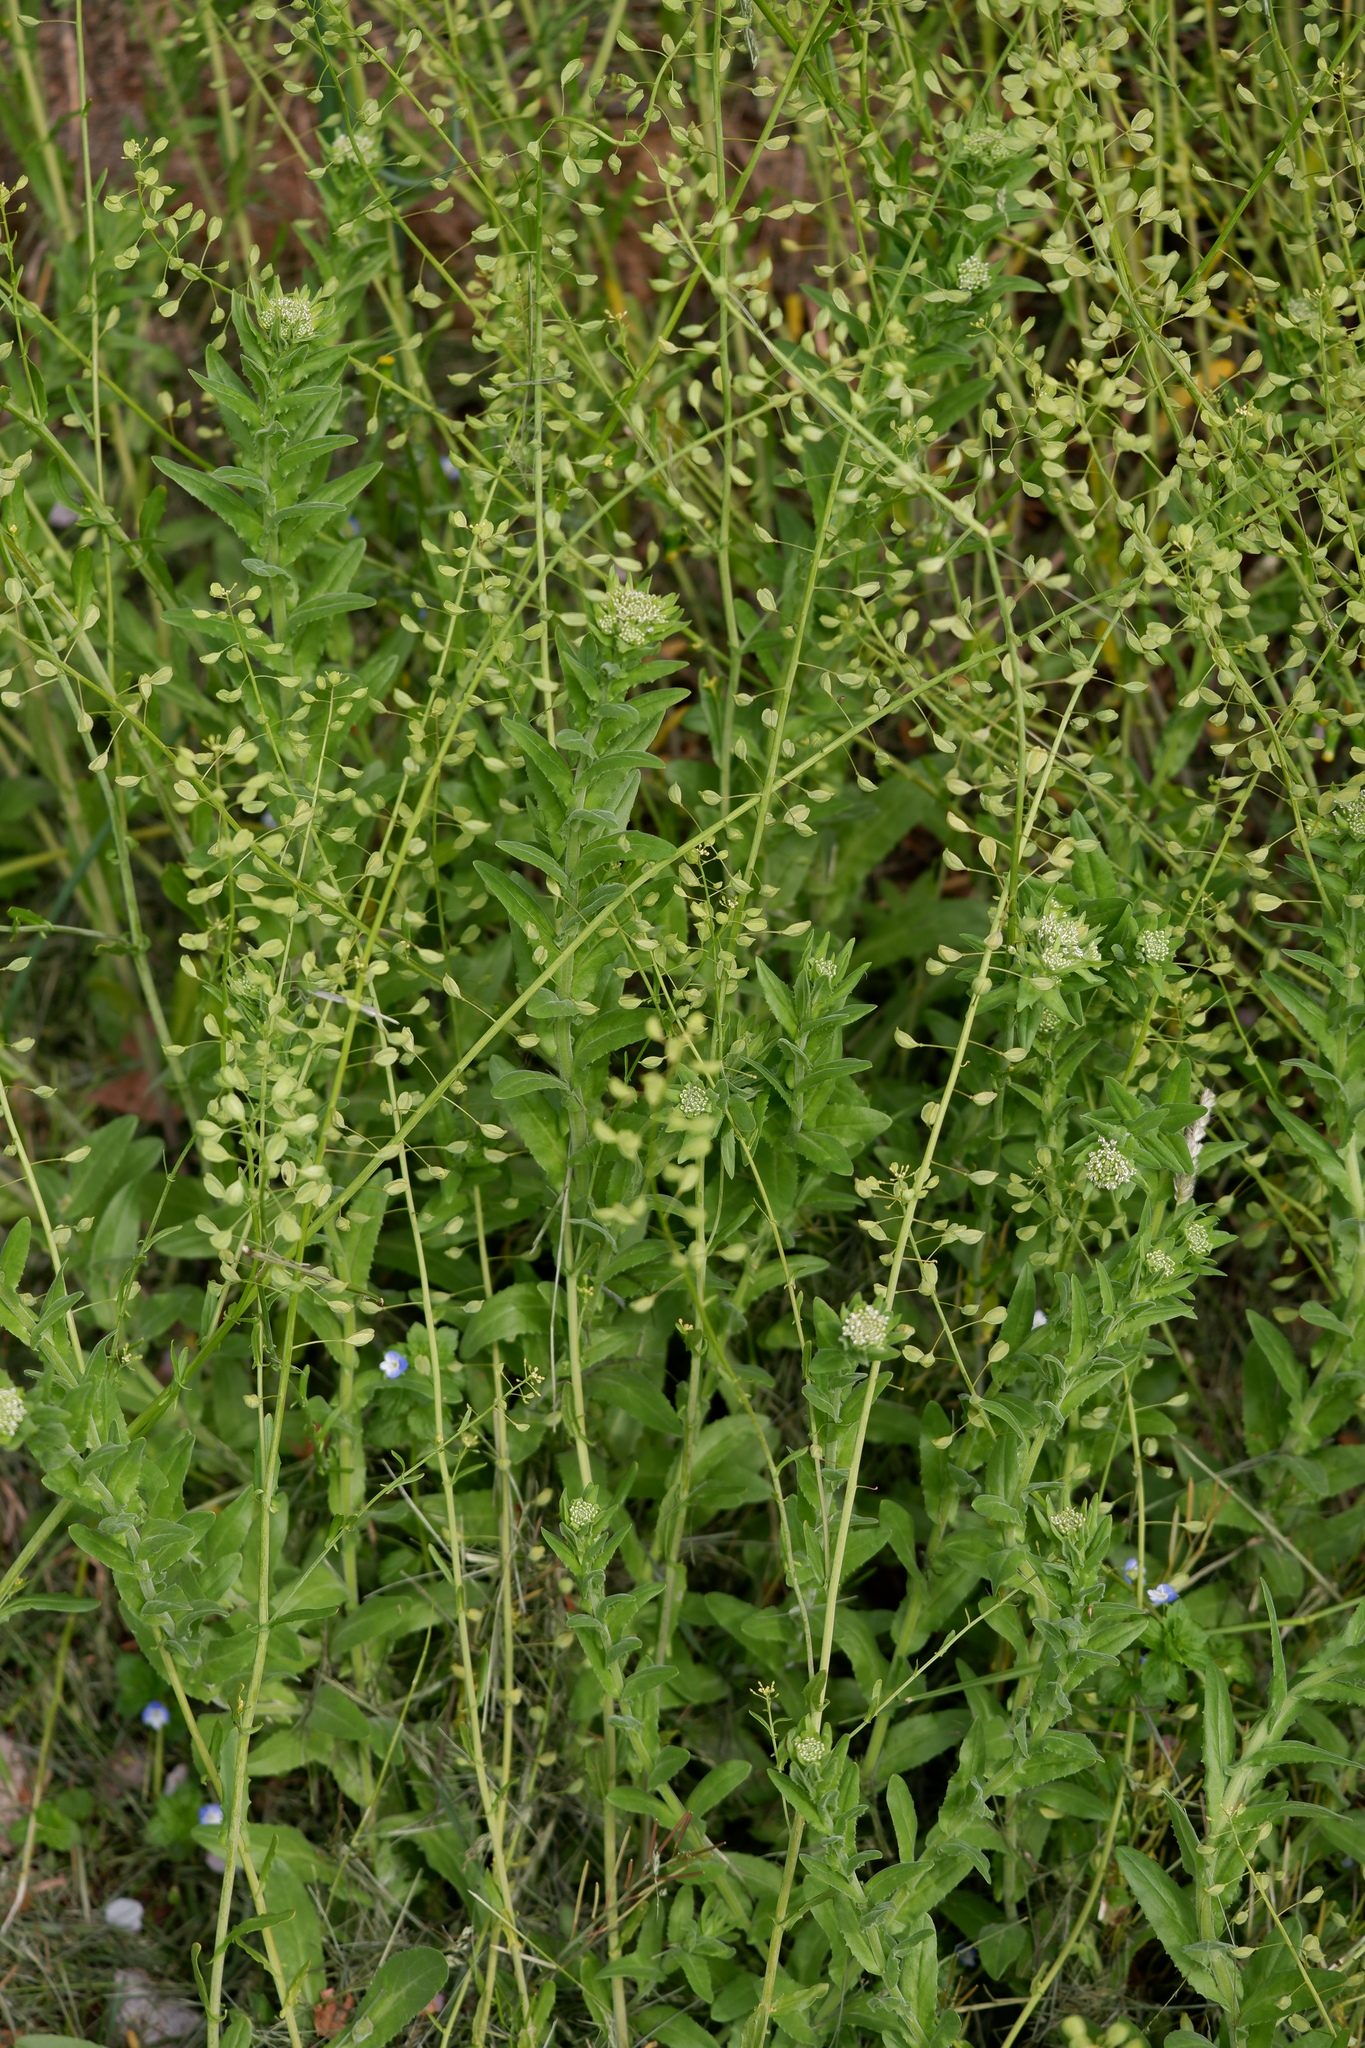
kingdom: Plantae
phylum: Tracheophyta
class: Magnoliopsida
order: Brassicales
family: Brassicaceae
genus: Lepidium
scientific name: Lepidium campestre
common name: Field pepperwort
